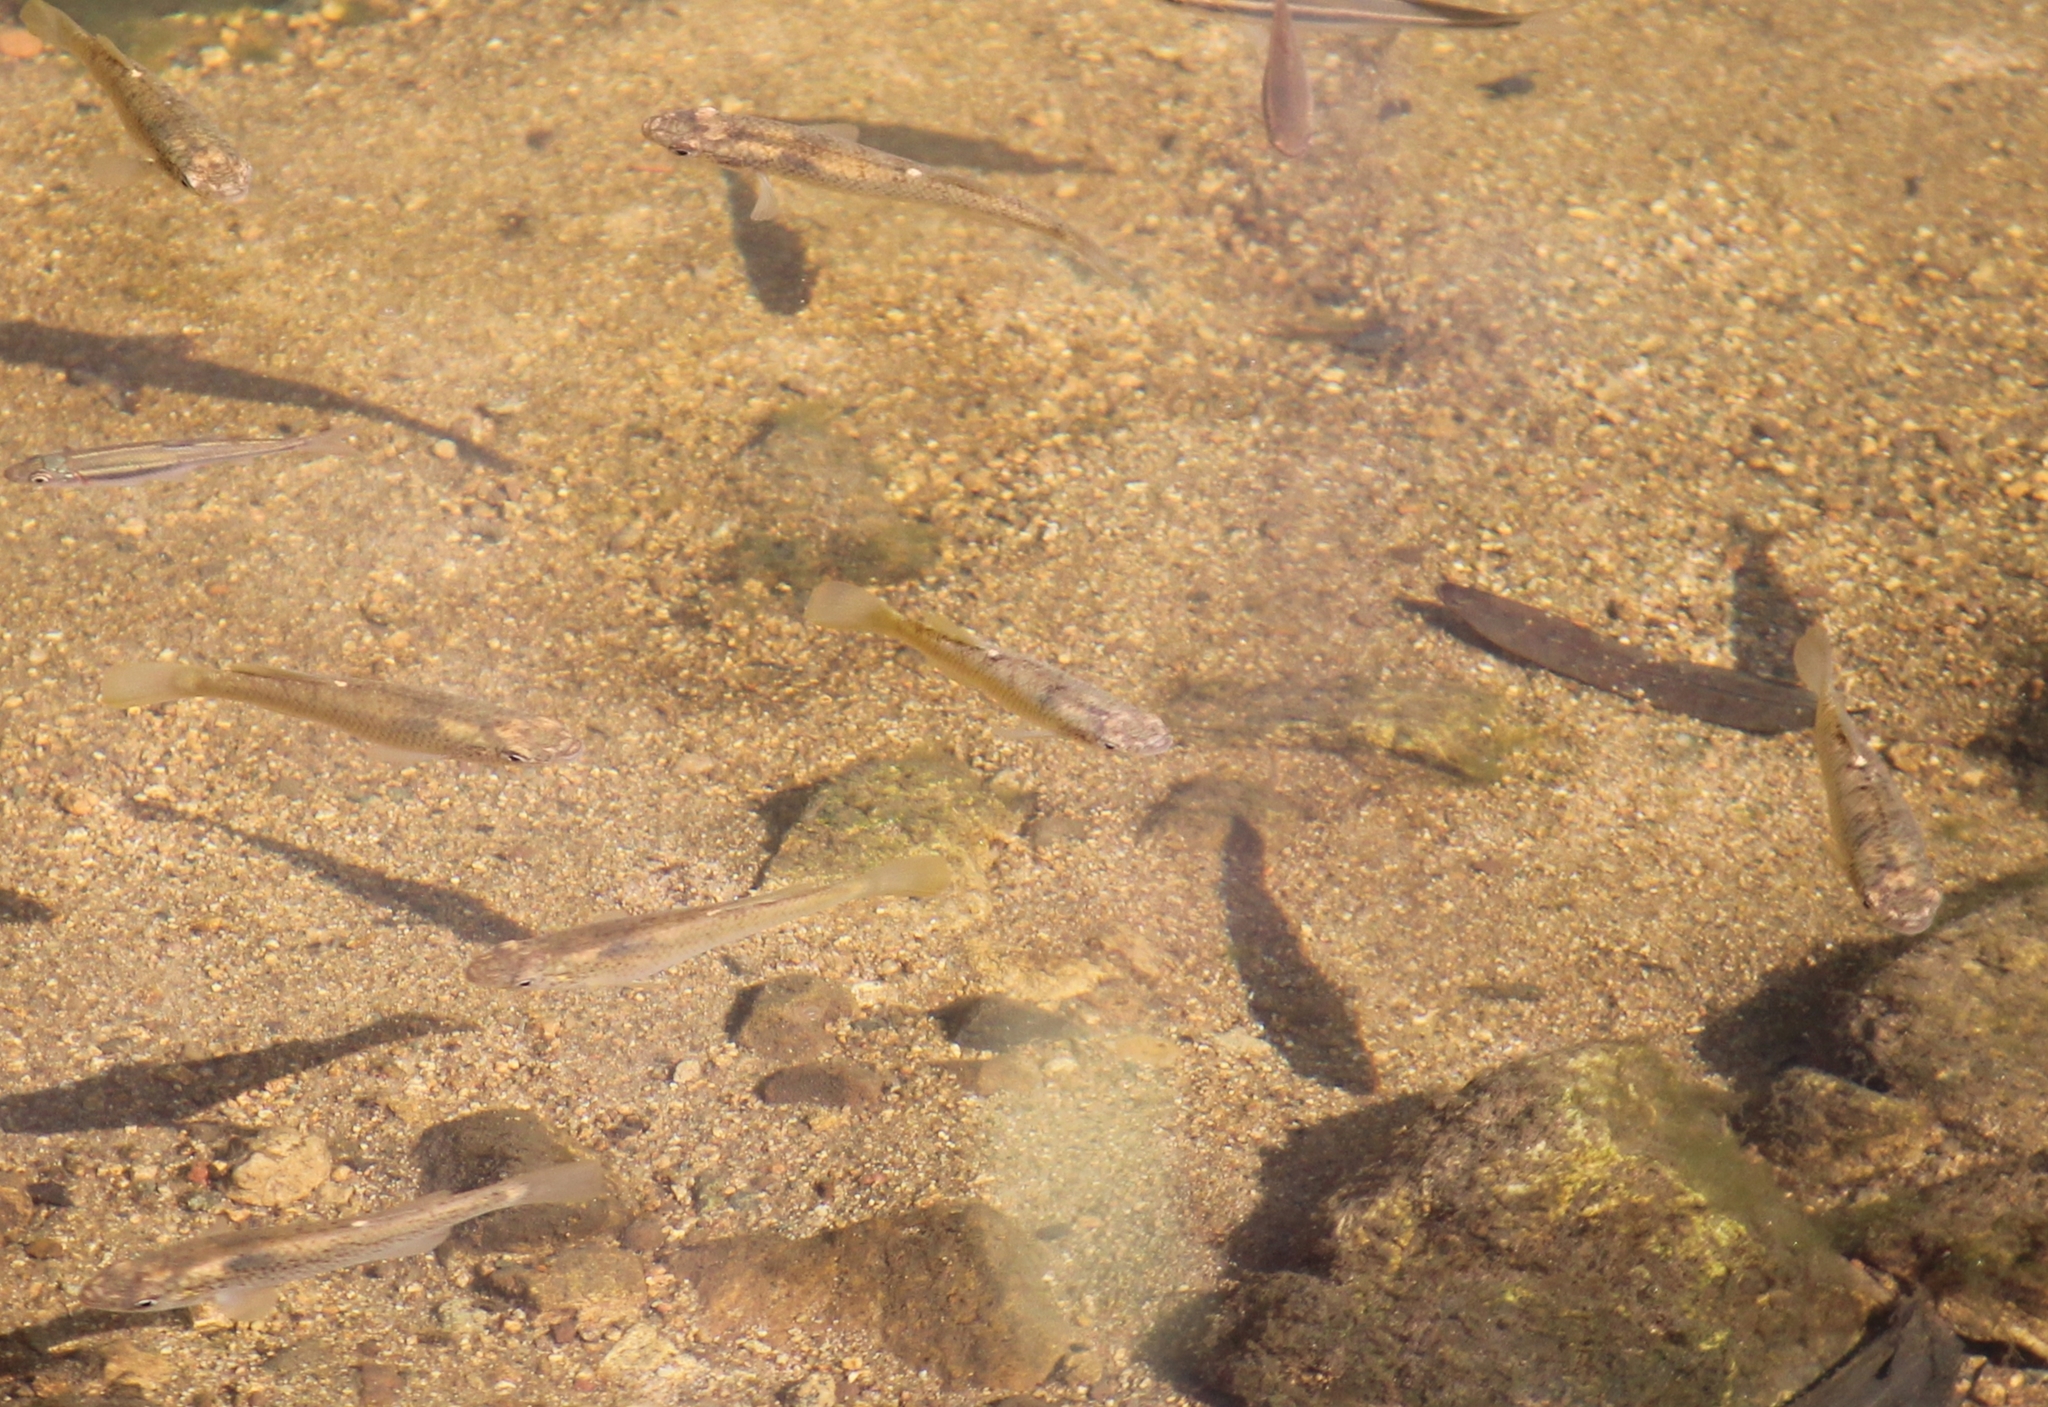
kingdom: Animalia
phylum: Chordata
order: Cyprinodontiformes
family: Fundulidae
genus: Fundulus
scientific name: Fundulus rathbuni
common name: Speckled killifish
